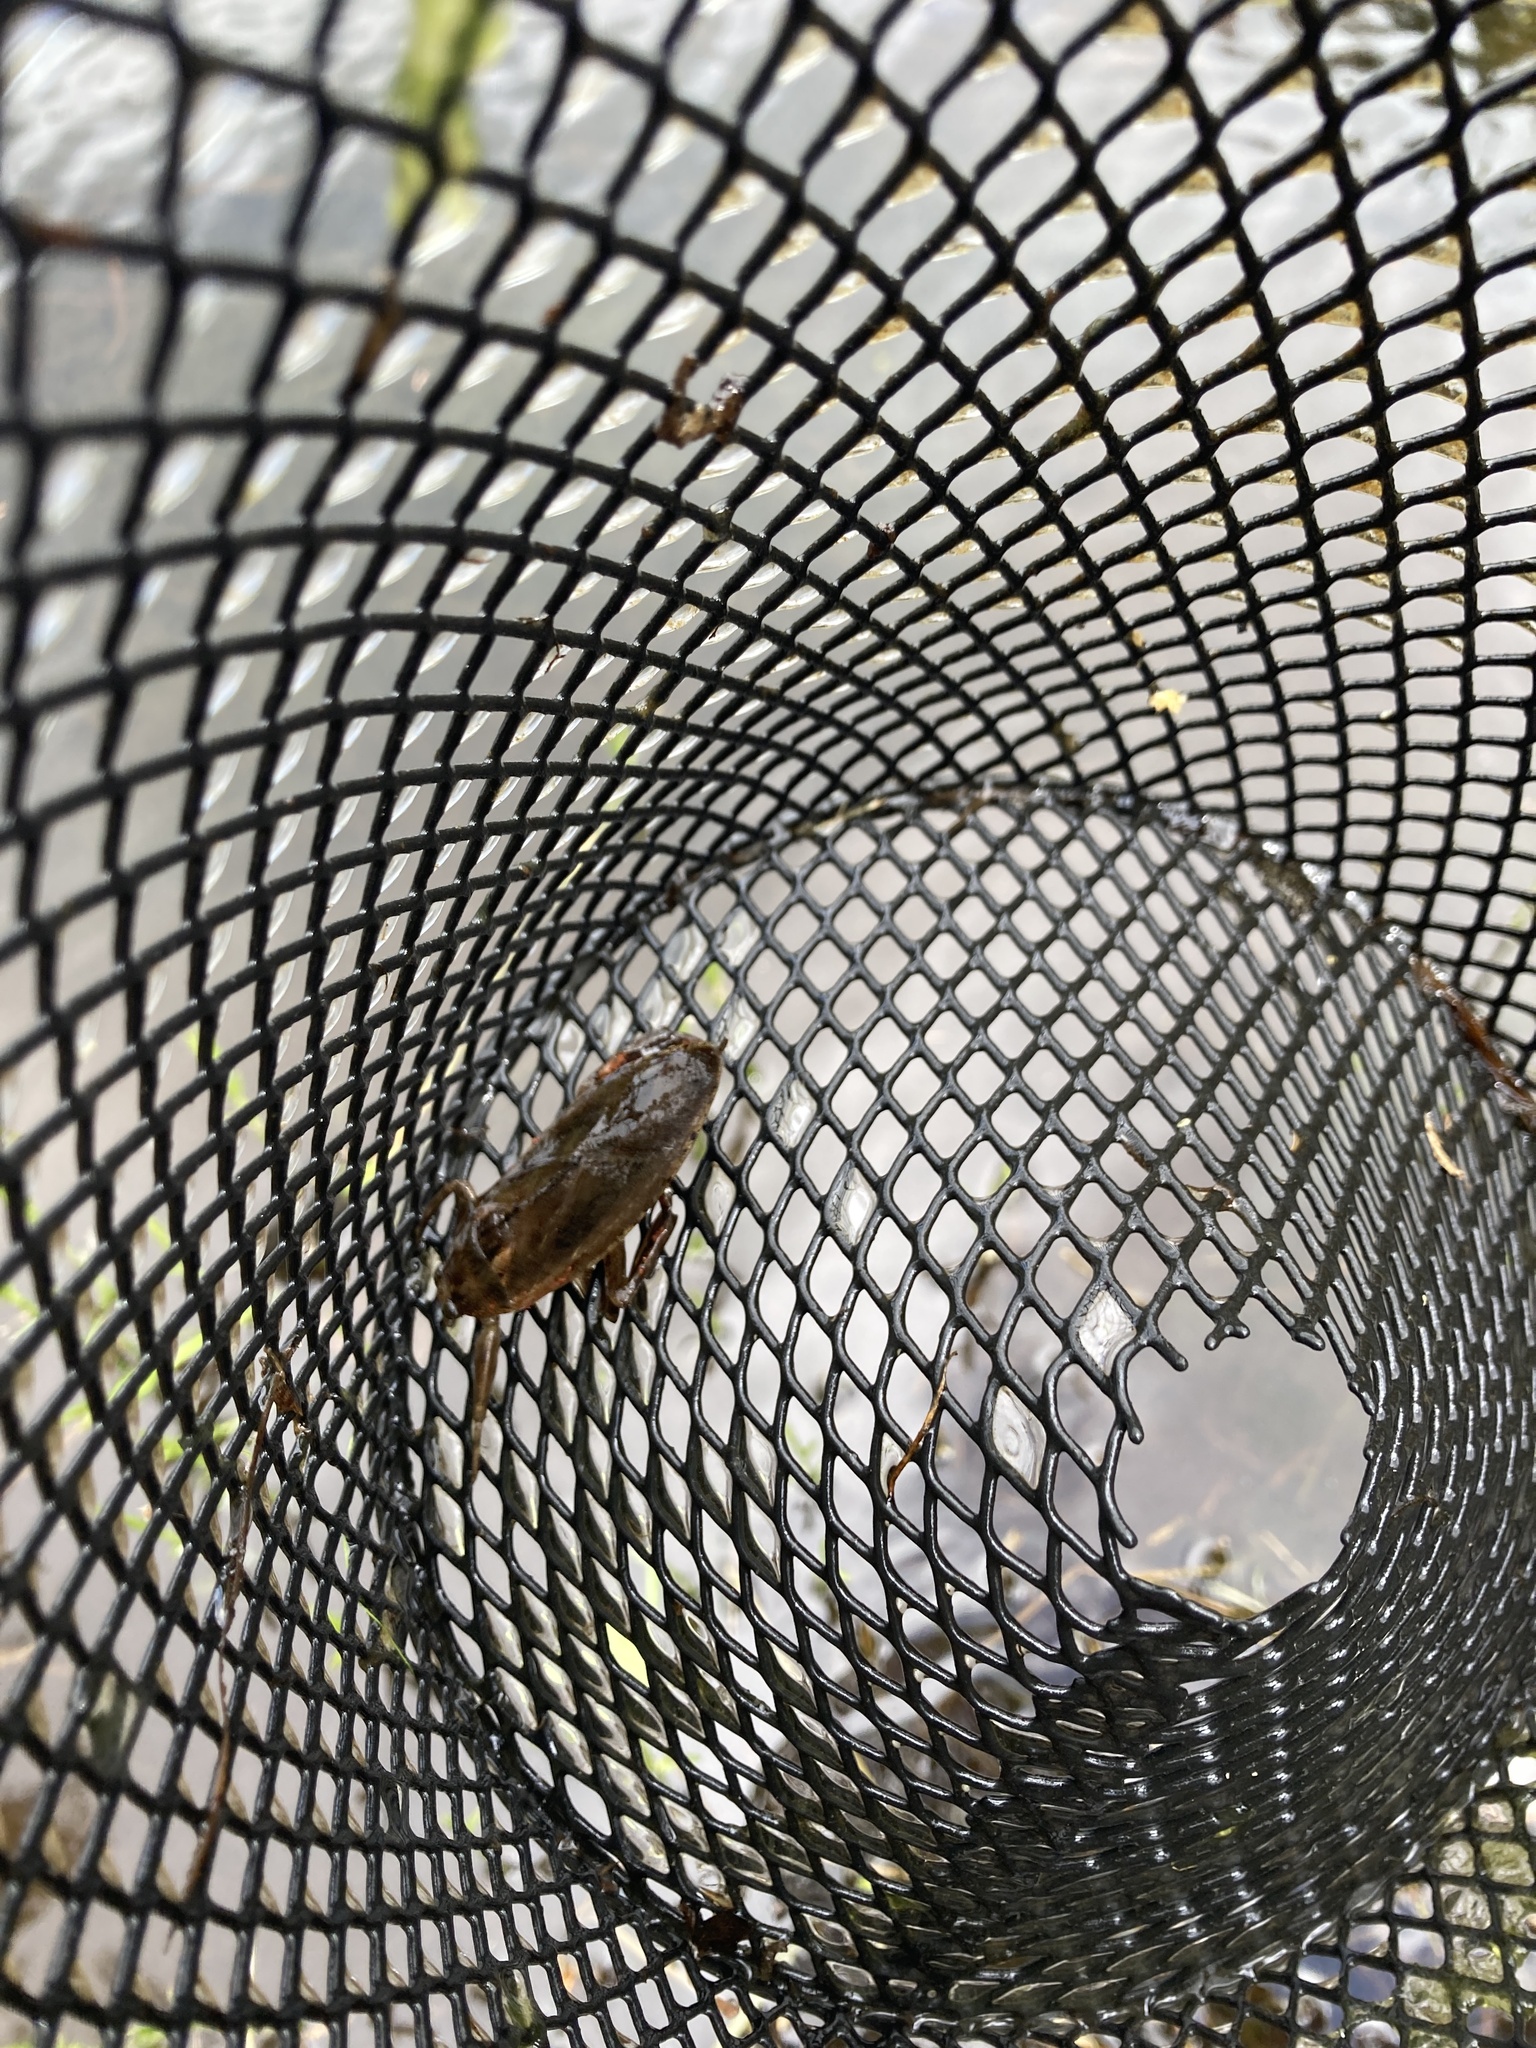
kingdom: Animalia
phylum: Arthropoda
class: Insecta
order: Hemiptera
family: Belostomatidae
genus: Lethocerus
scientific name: Lethocerus americanus
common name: Giant water bug
